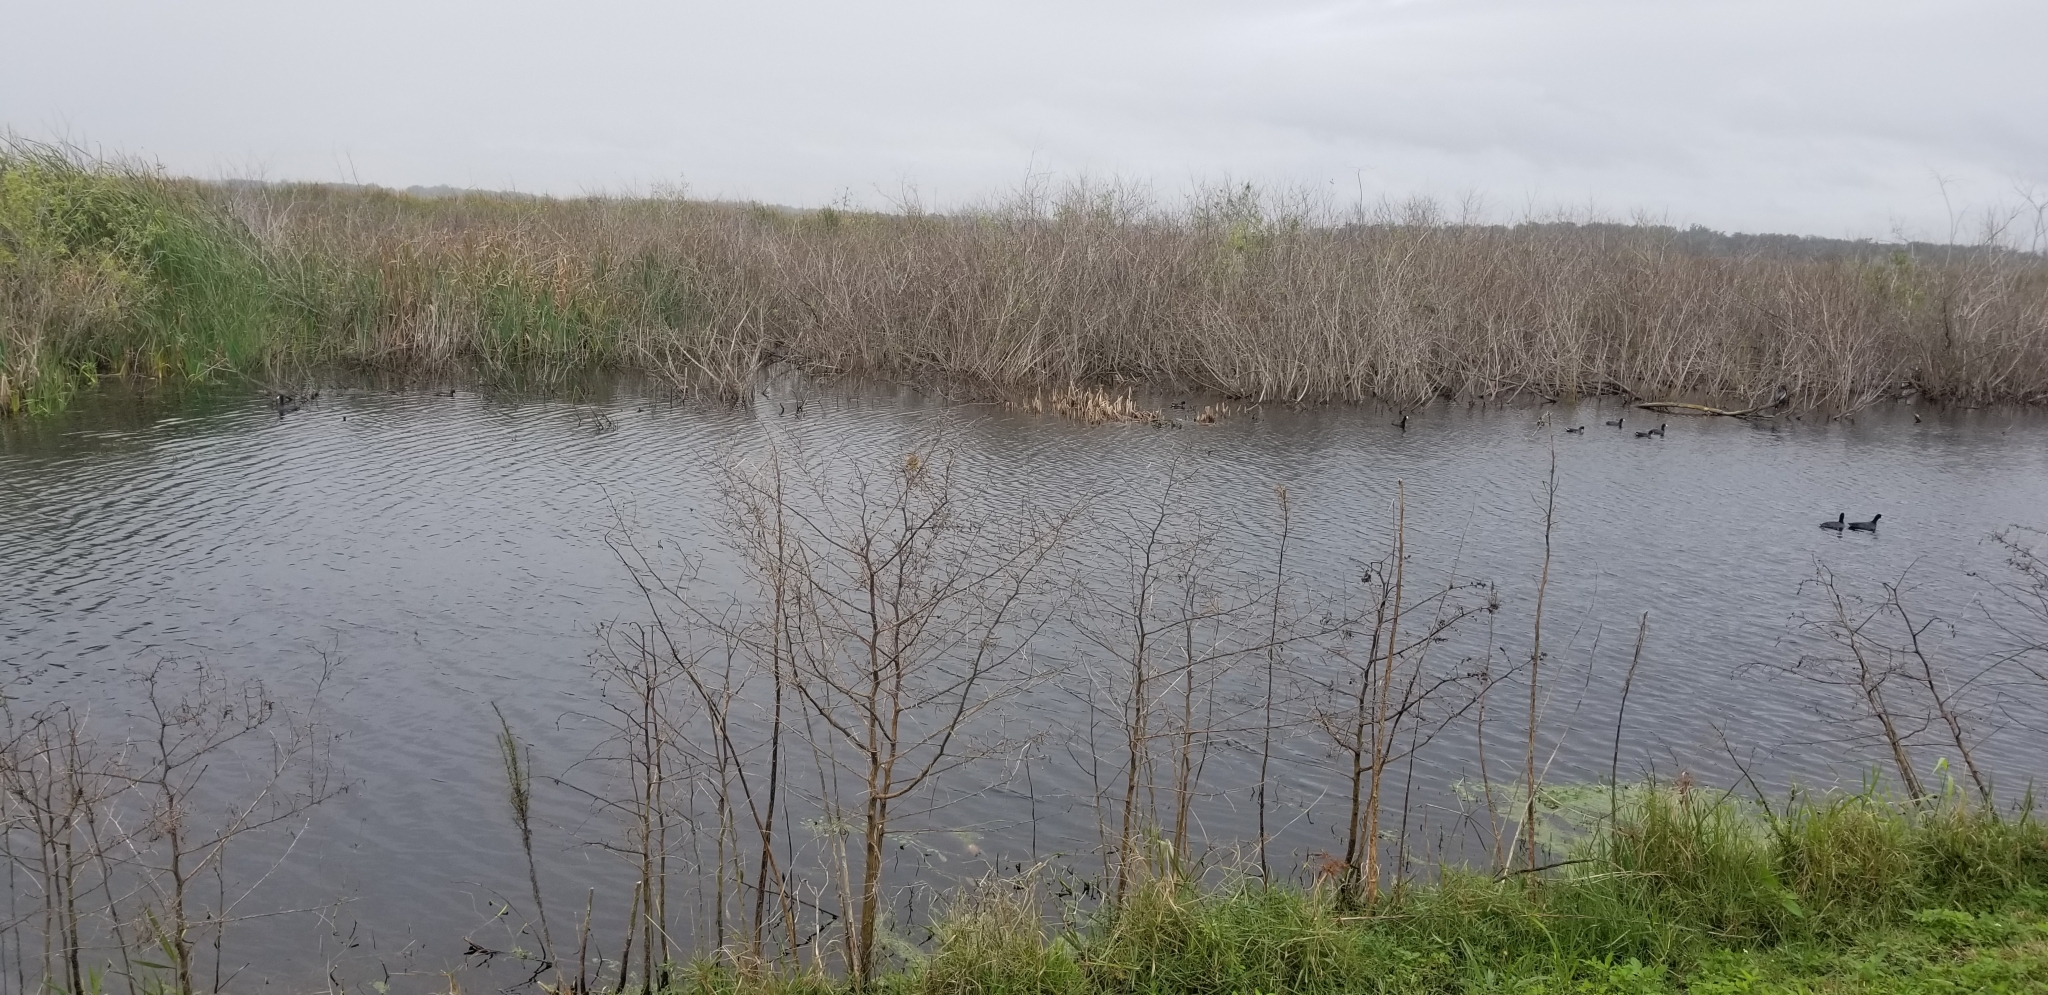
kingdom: Animalia
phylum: Chordata
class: Aves
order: Gruiformes
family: Rallidae
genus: Fulica
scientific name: Fulica americana
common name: American coot
